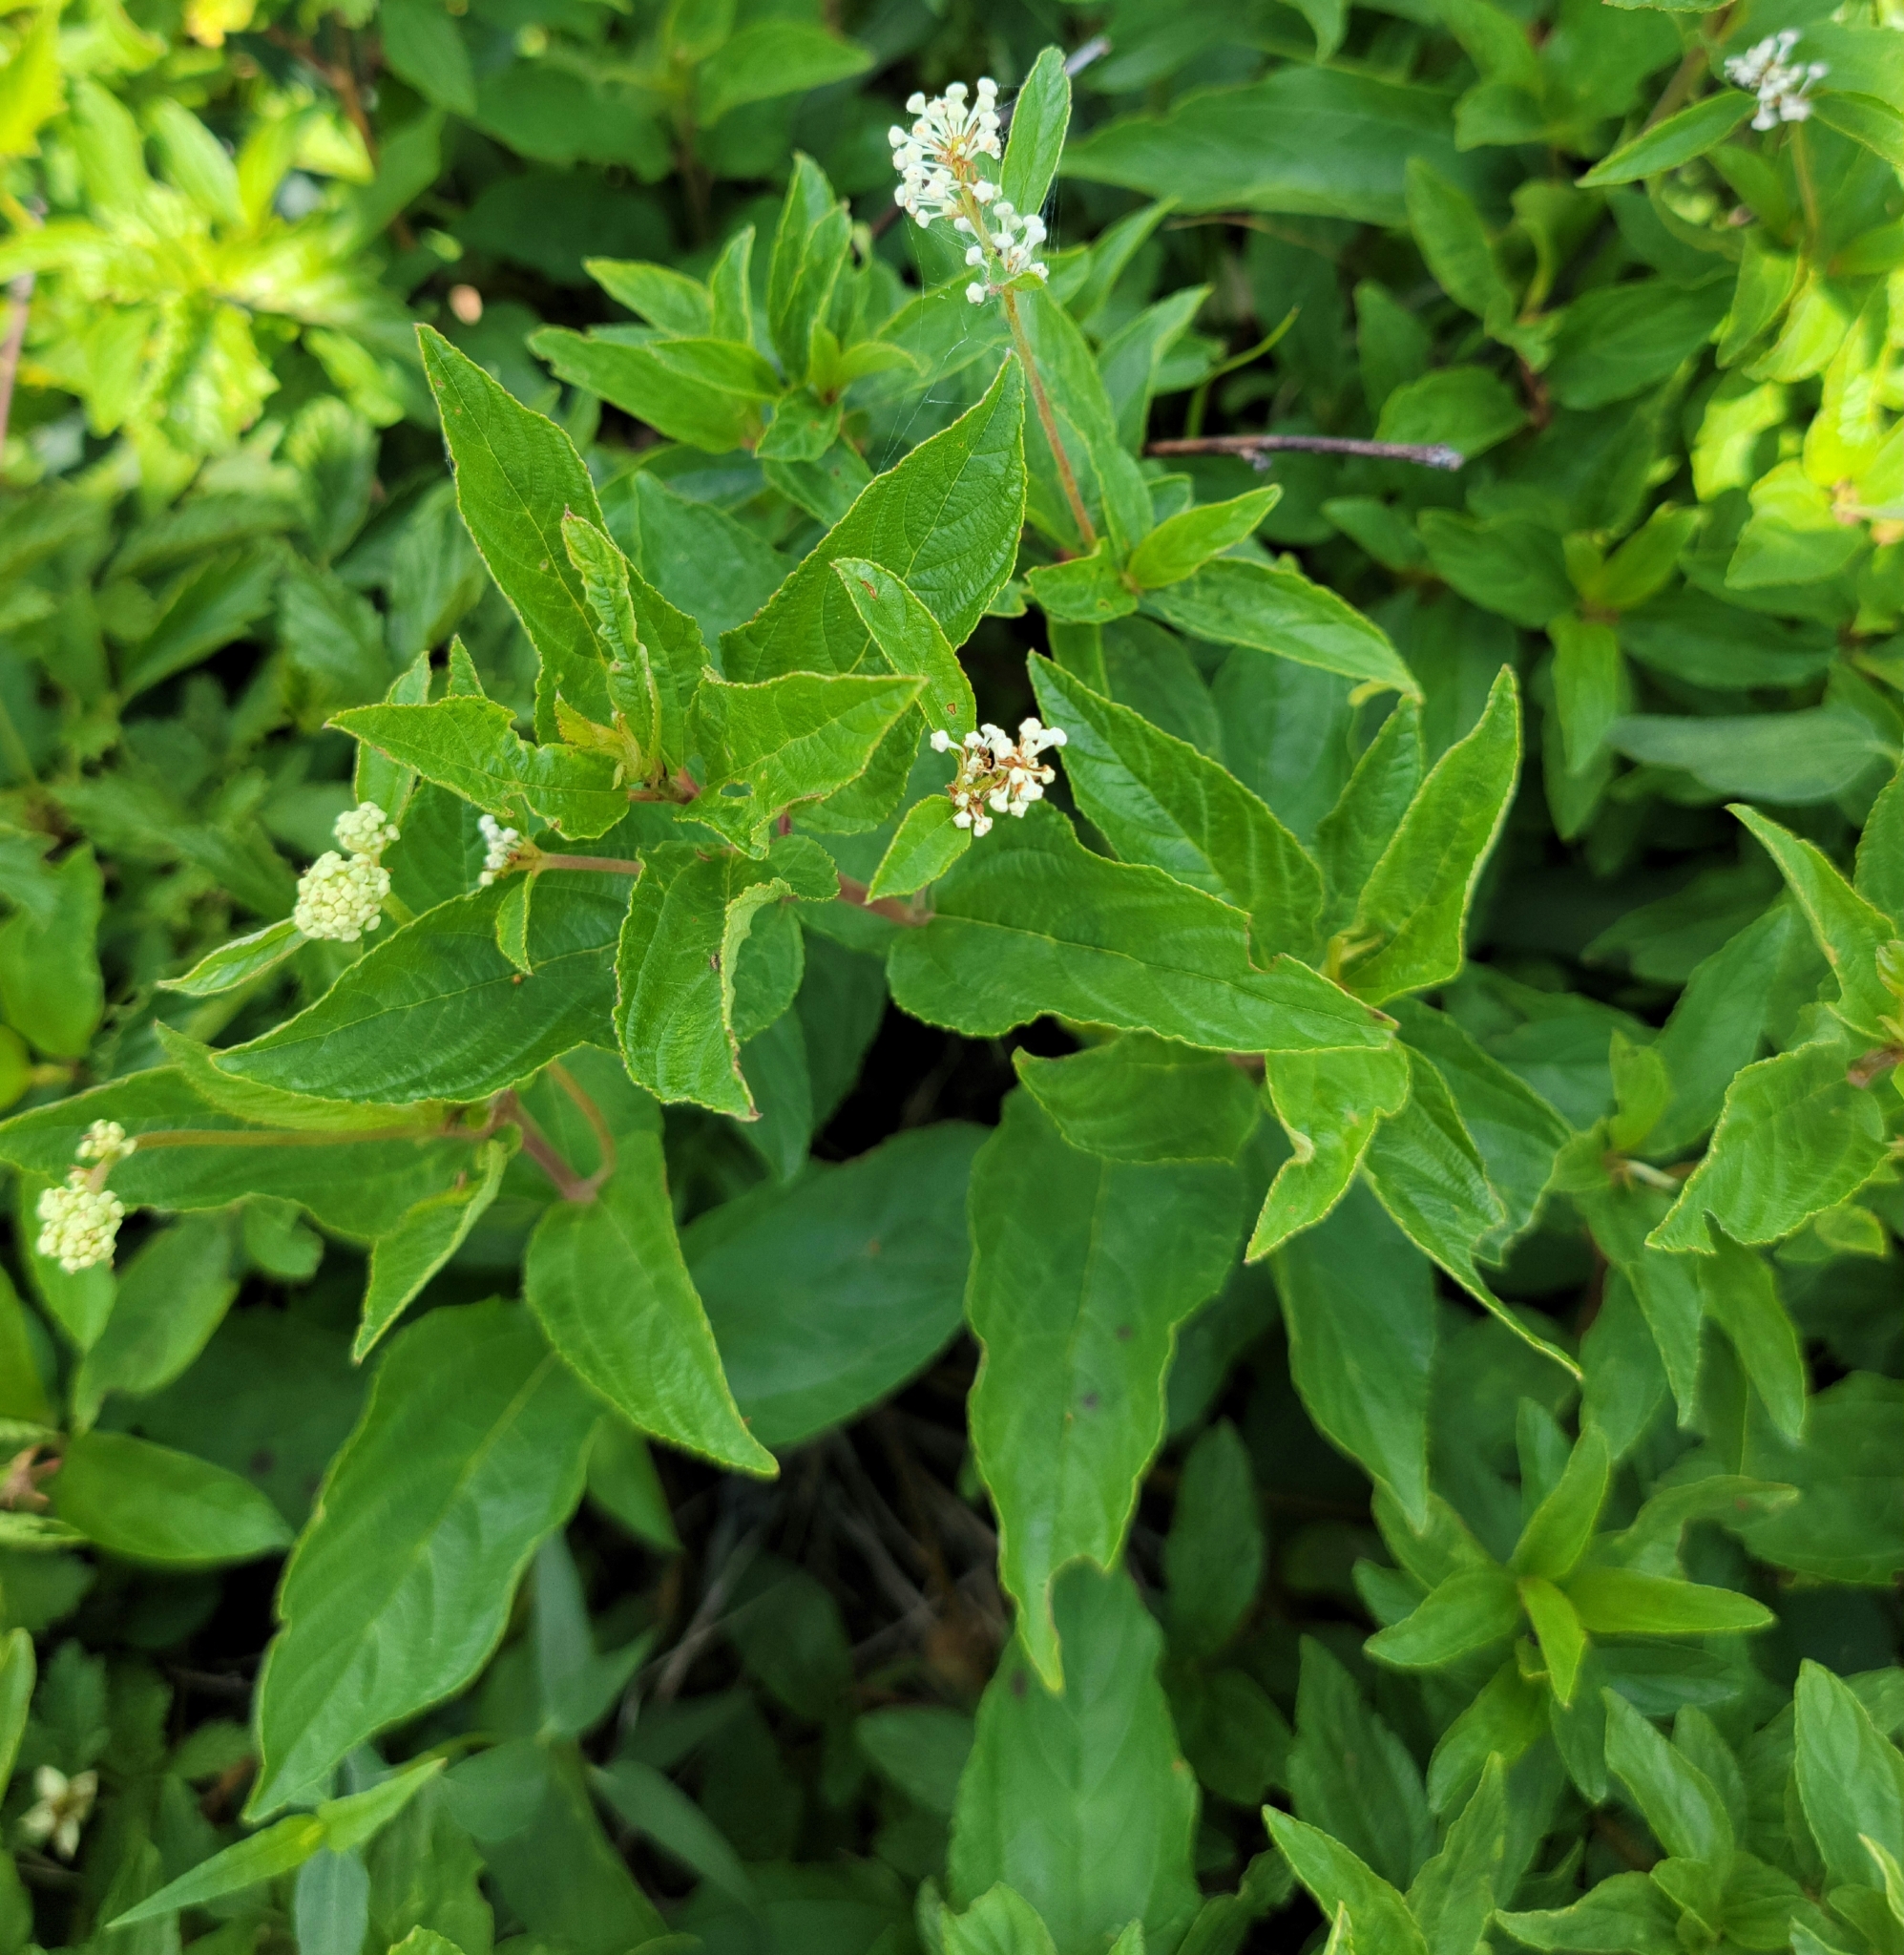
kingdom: Plantae
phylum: Tracheophyta
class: Magnoliopsida
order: Rosales
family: Rhamnaceae
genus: Ceanothus
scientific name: Ceanothus americanus
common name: Redroot
